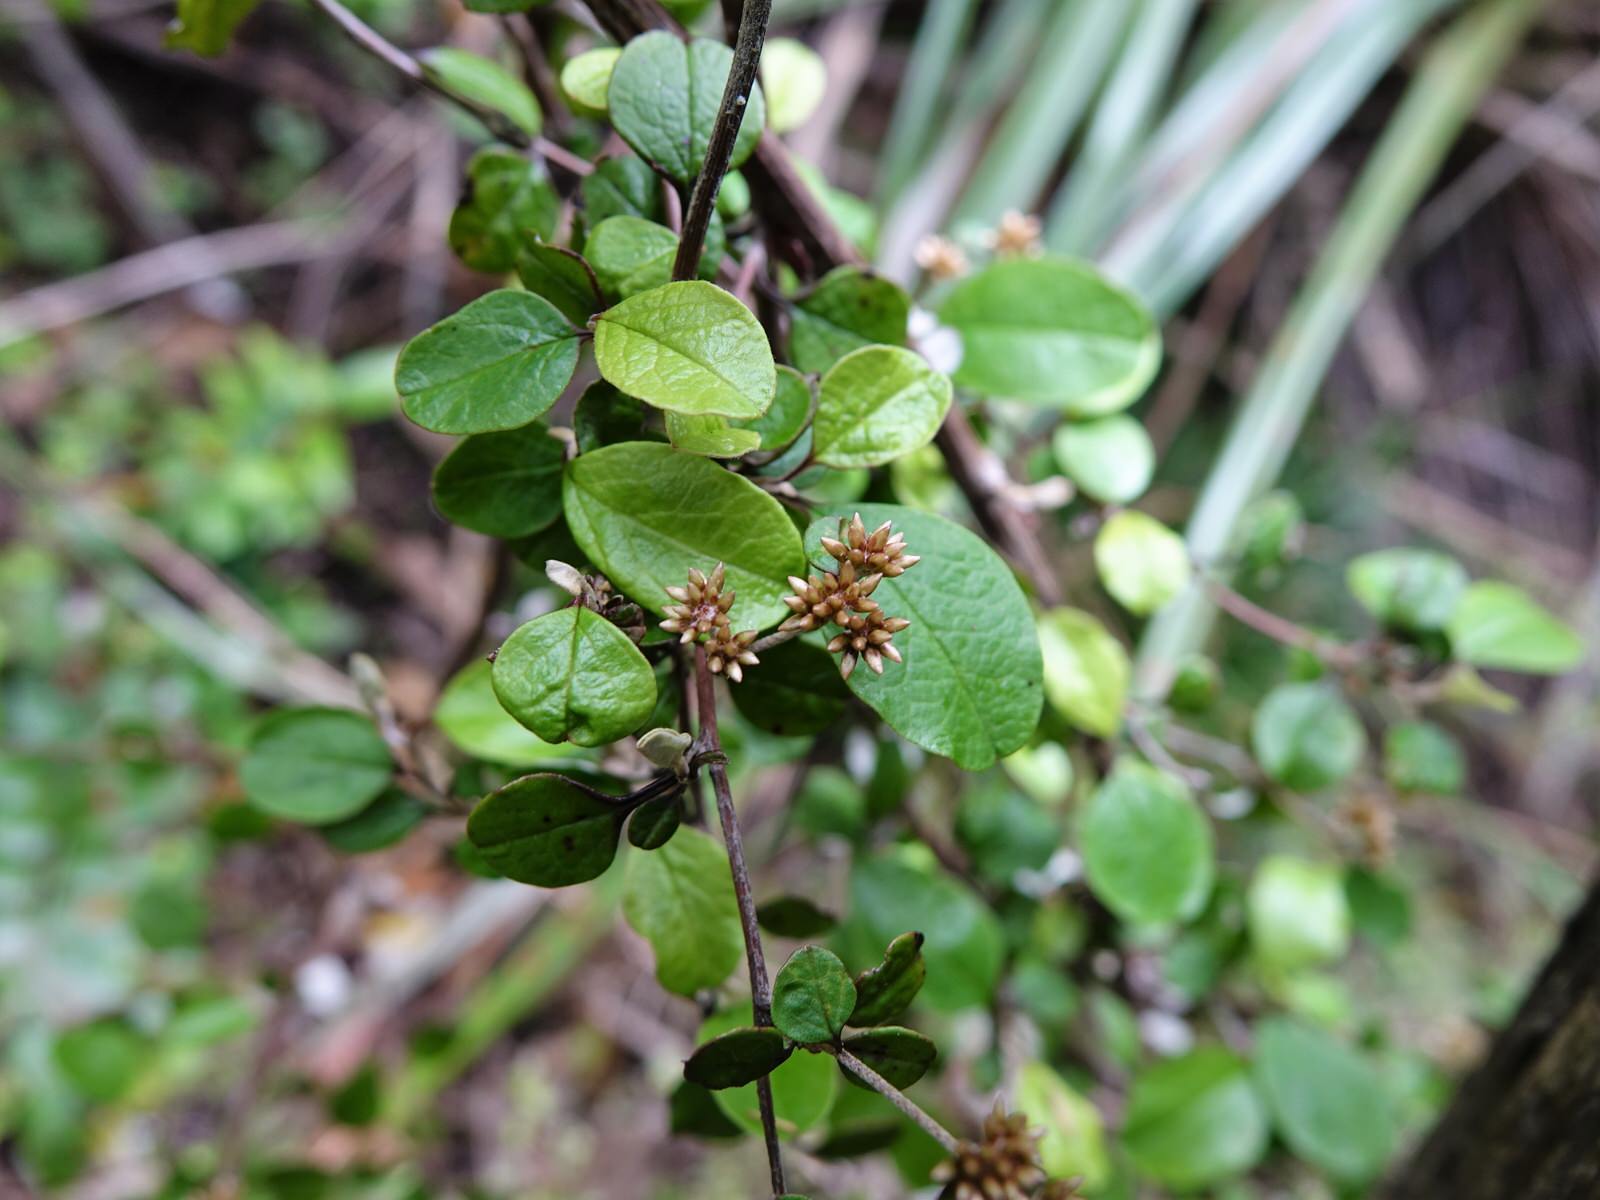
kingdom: Plantae
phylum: Tracheophyta
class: Magnoliopsida
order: Asterales
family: Asteraceae
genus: Ozothamnus
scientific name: Ozothamnus glomeratus
